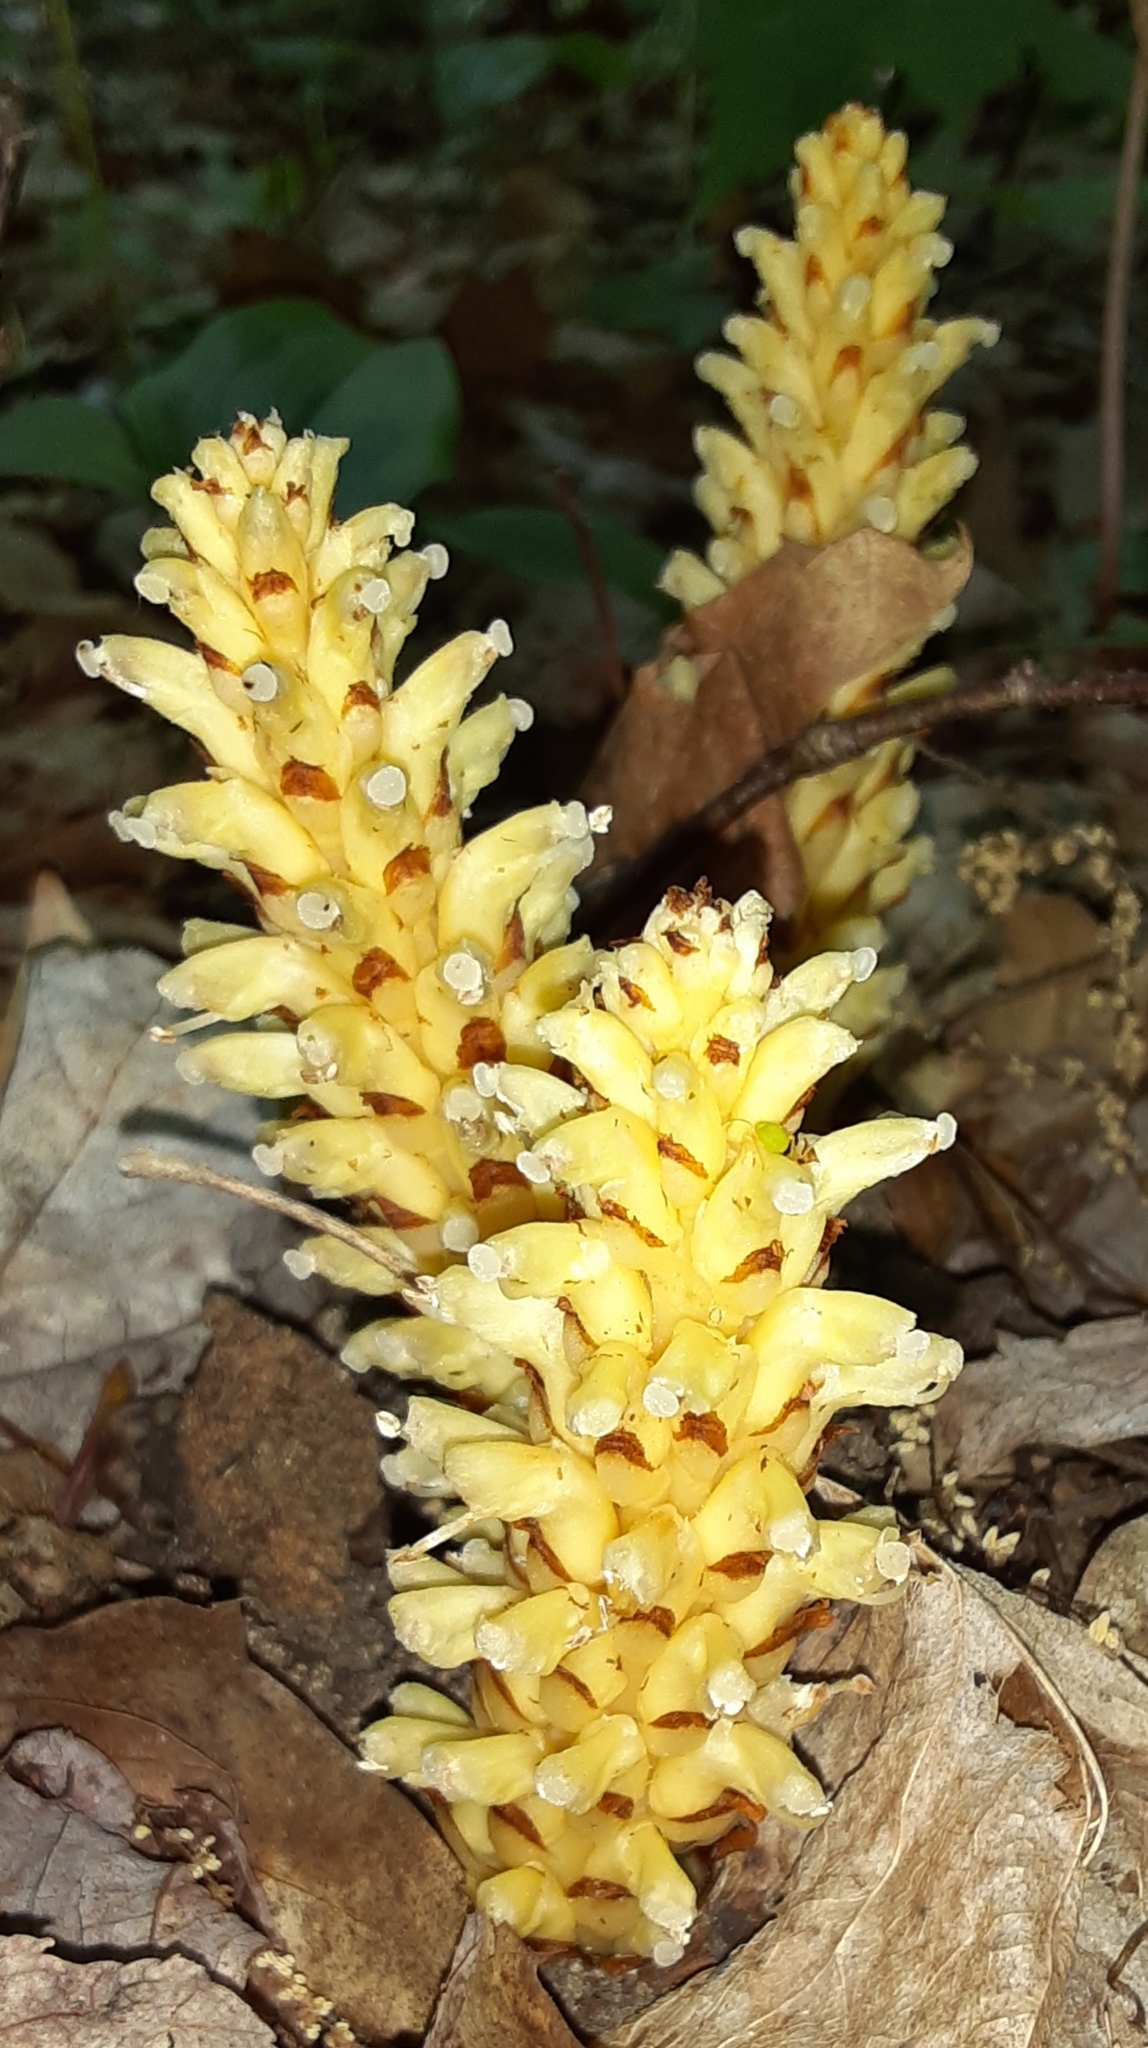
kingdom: Plantae
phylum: Tracheophyta
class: Magnoliopsida
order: Lamiales
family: Orobanchaceae
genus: Conopholis
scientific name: Conopholis americana
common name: American cancer-root
